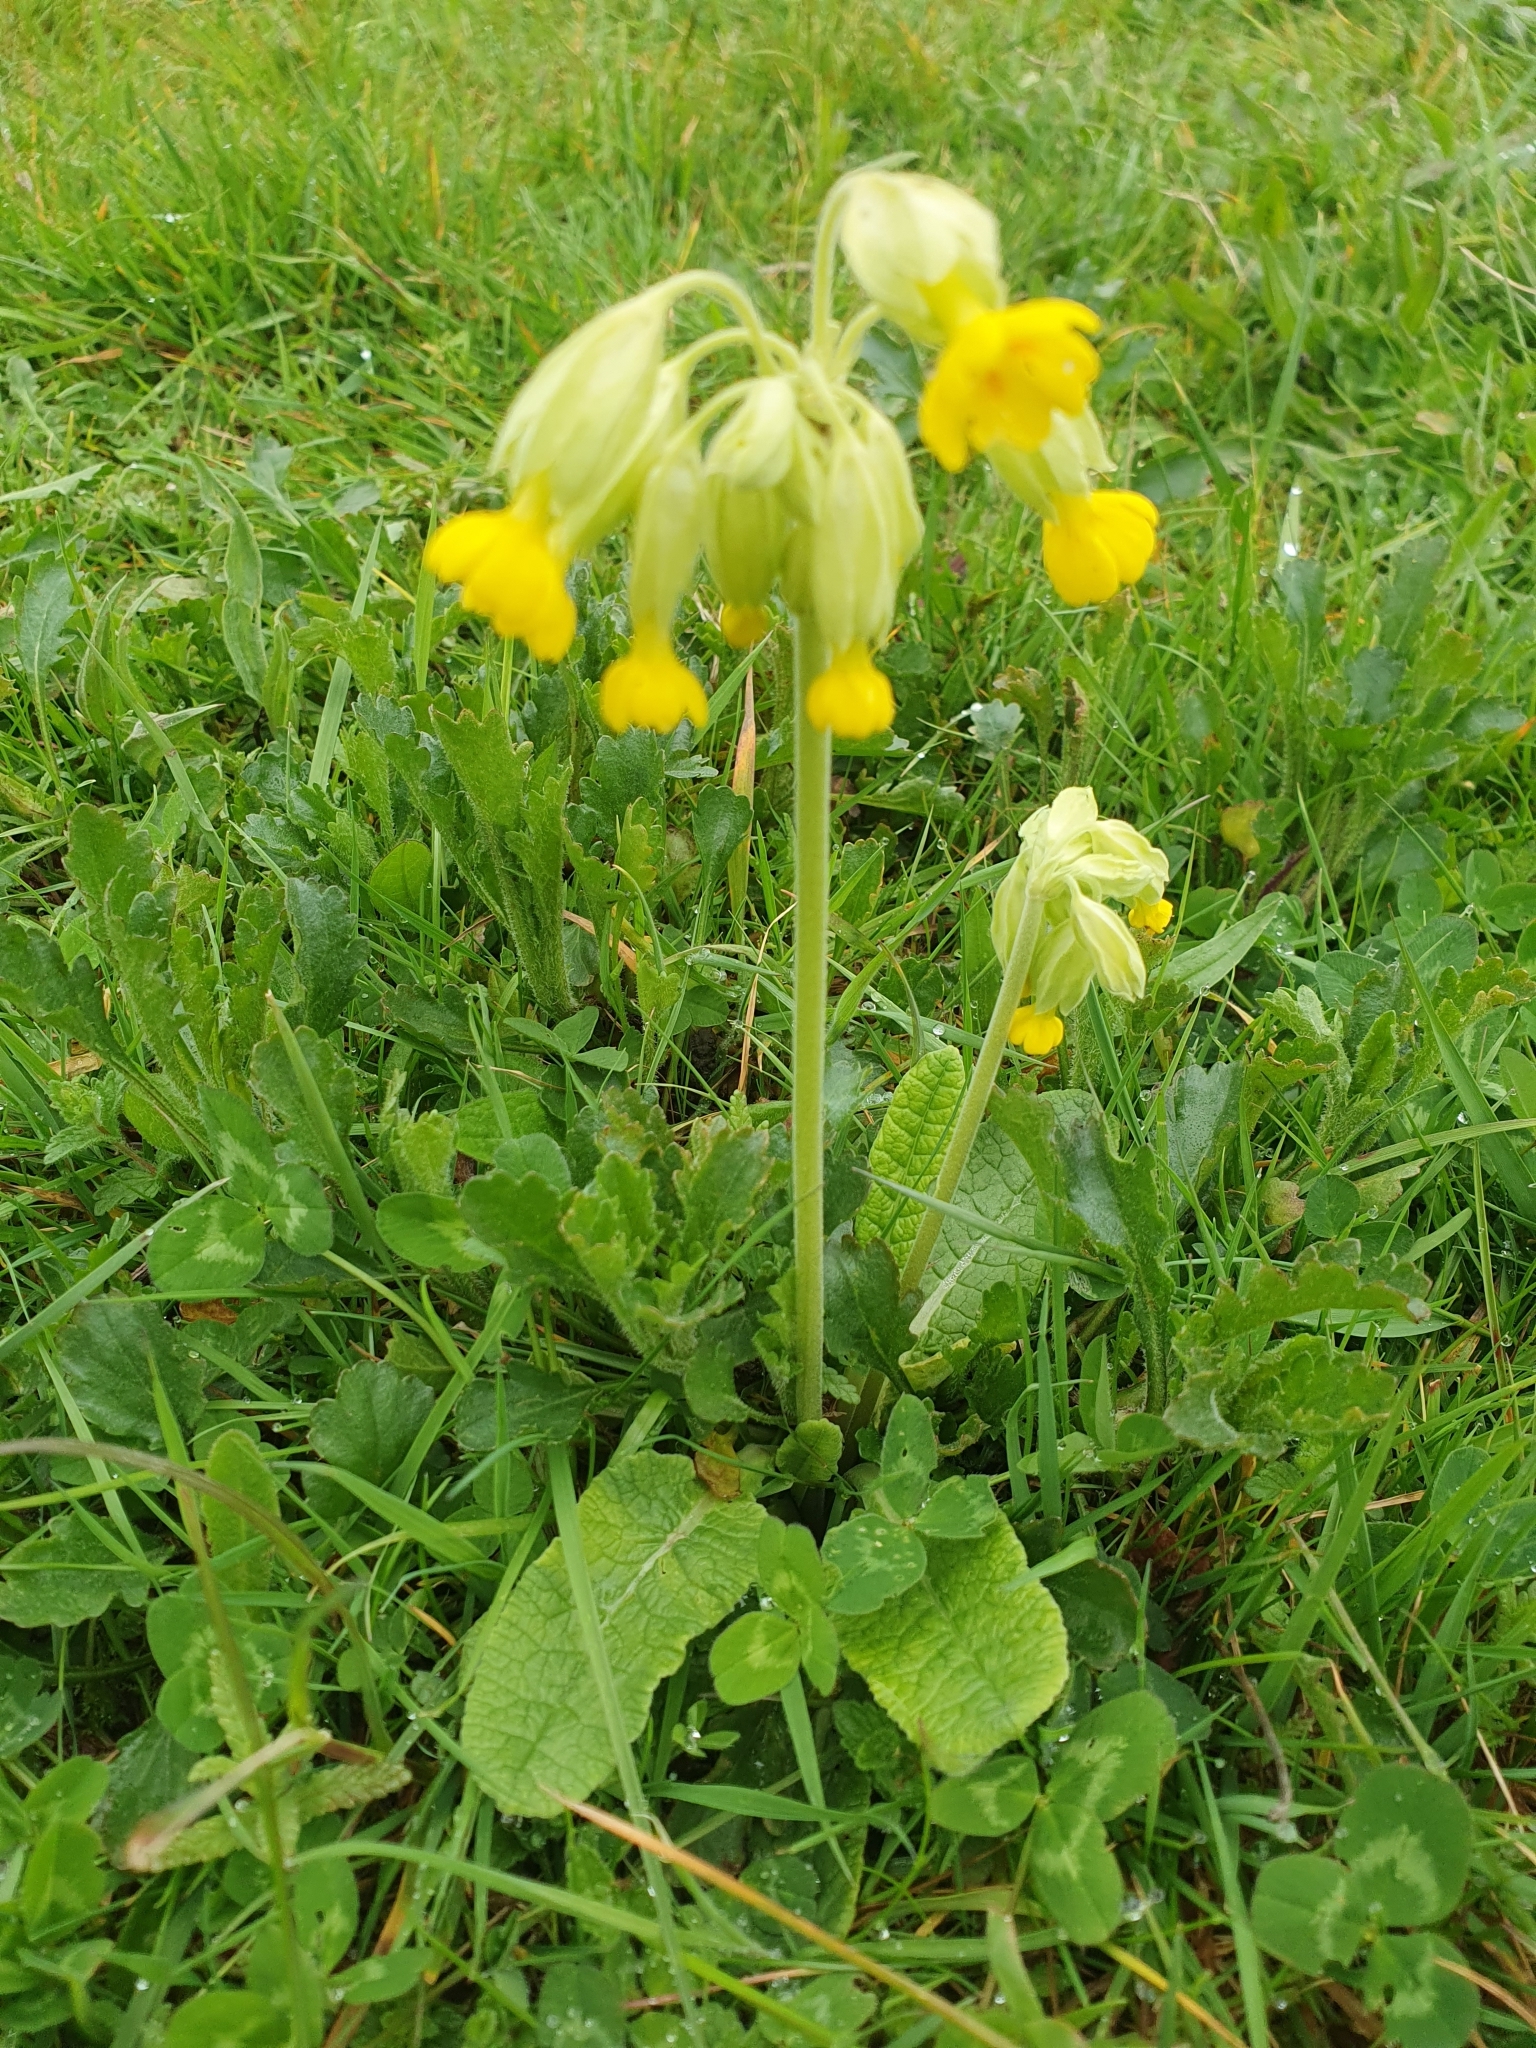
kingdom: Plantae
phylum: Tracheophyta
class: Magnoliopsida
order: Ericales
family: Primulaceae
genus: Primula
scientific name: Primula veris
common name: Cowslip
